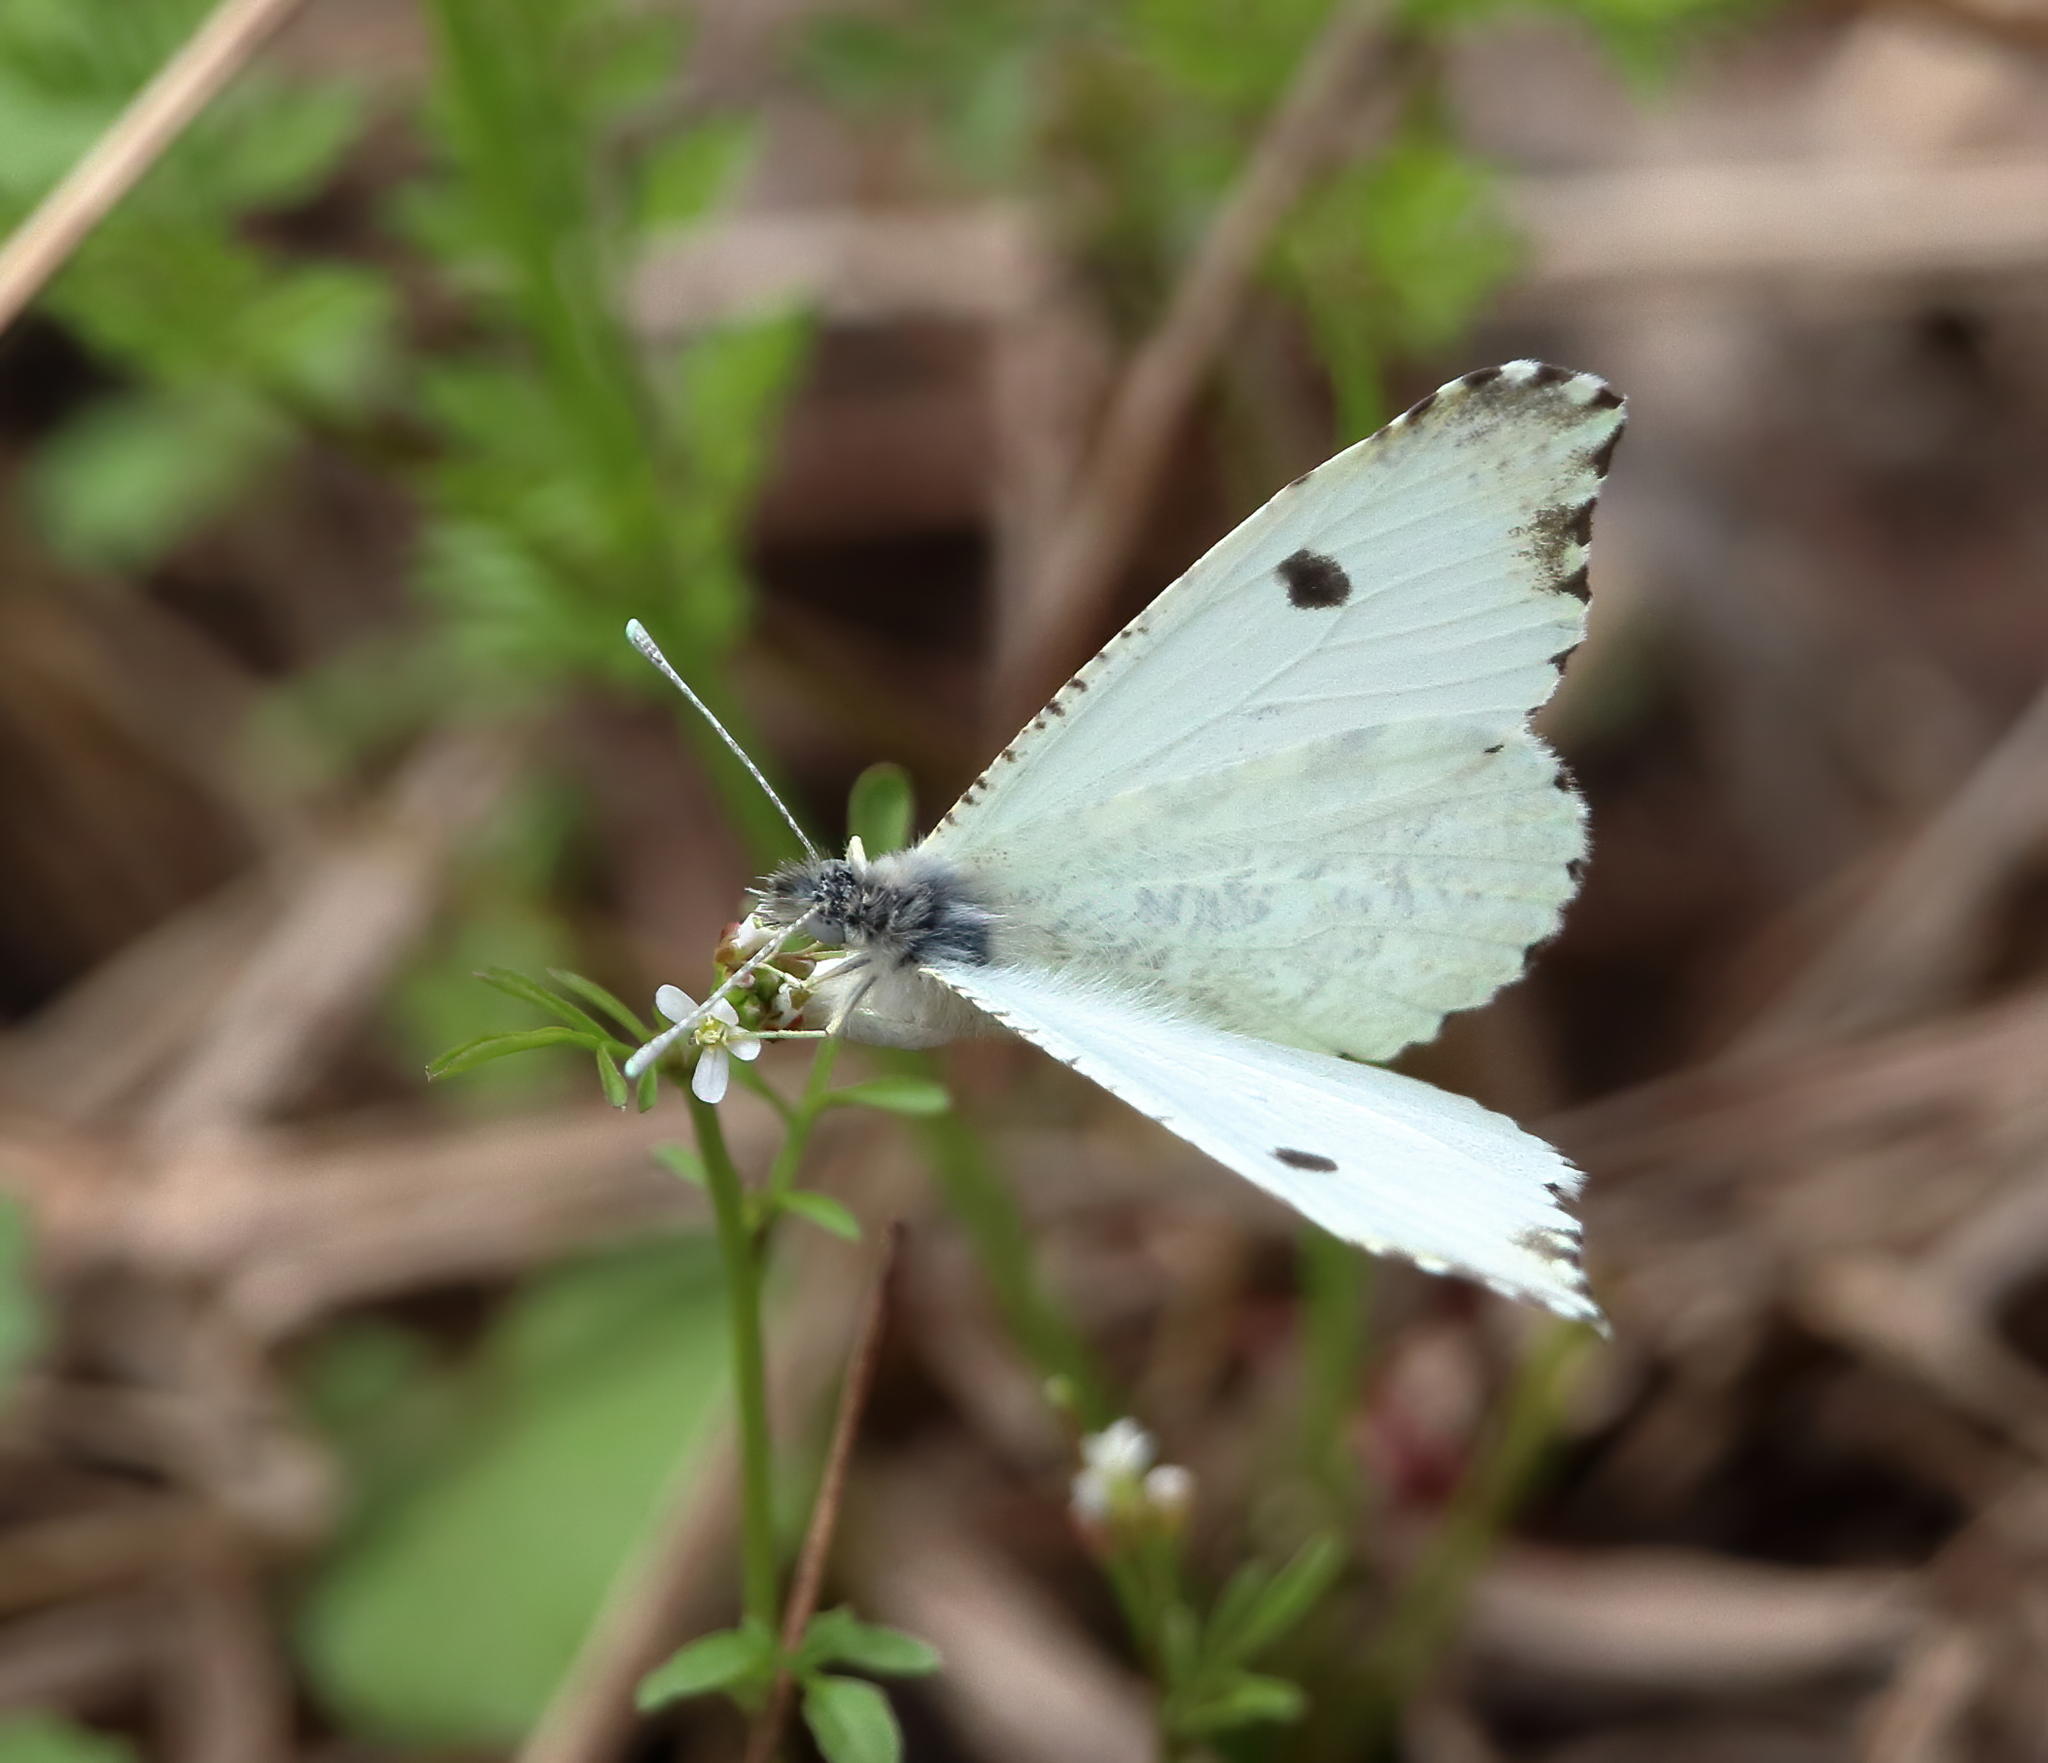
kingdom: Animalia
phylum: Arthropoda
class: Insecta
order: Lepidoptera
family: Pieridae
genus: Anthocharis
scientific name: Anthocharis midea
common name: Falcate orangetip
